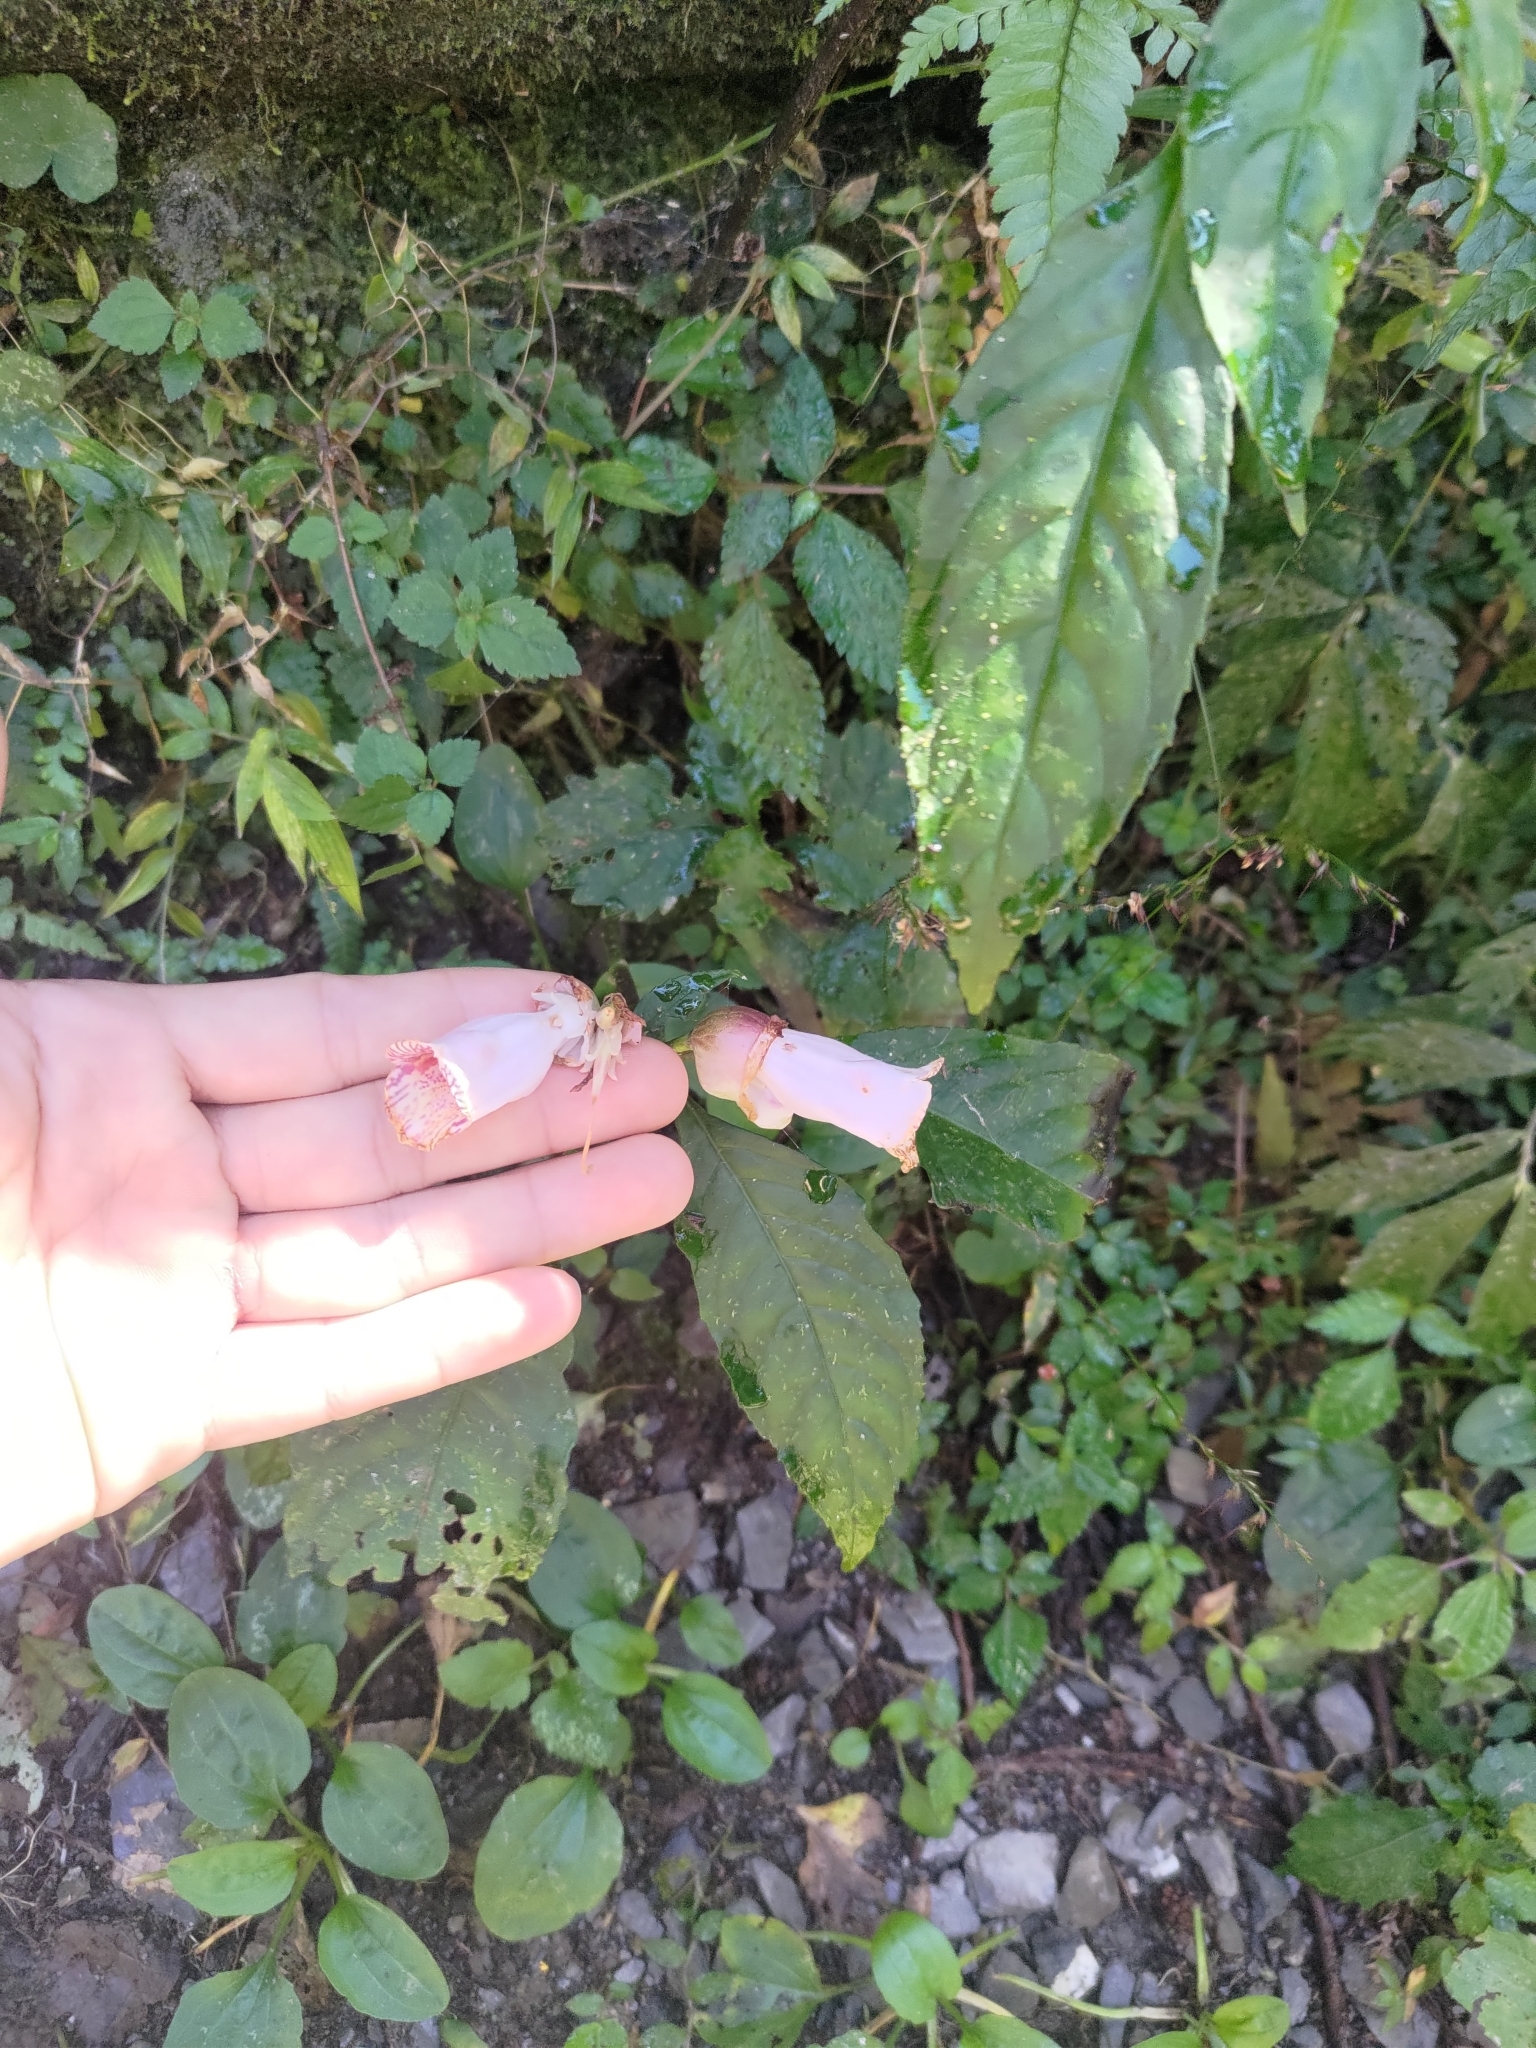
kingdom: Plantae
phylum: Tracheophyta
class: Magnoliopsida
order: Lamiales
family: Gesneriaceae
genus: Hemiboea
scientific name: Hemiboea bicornuta
